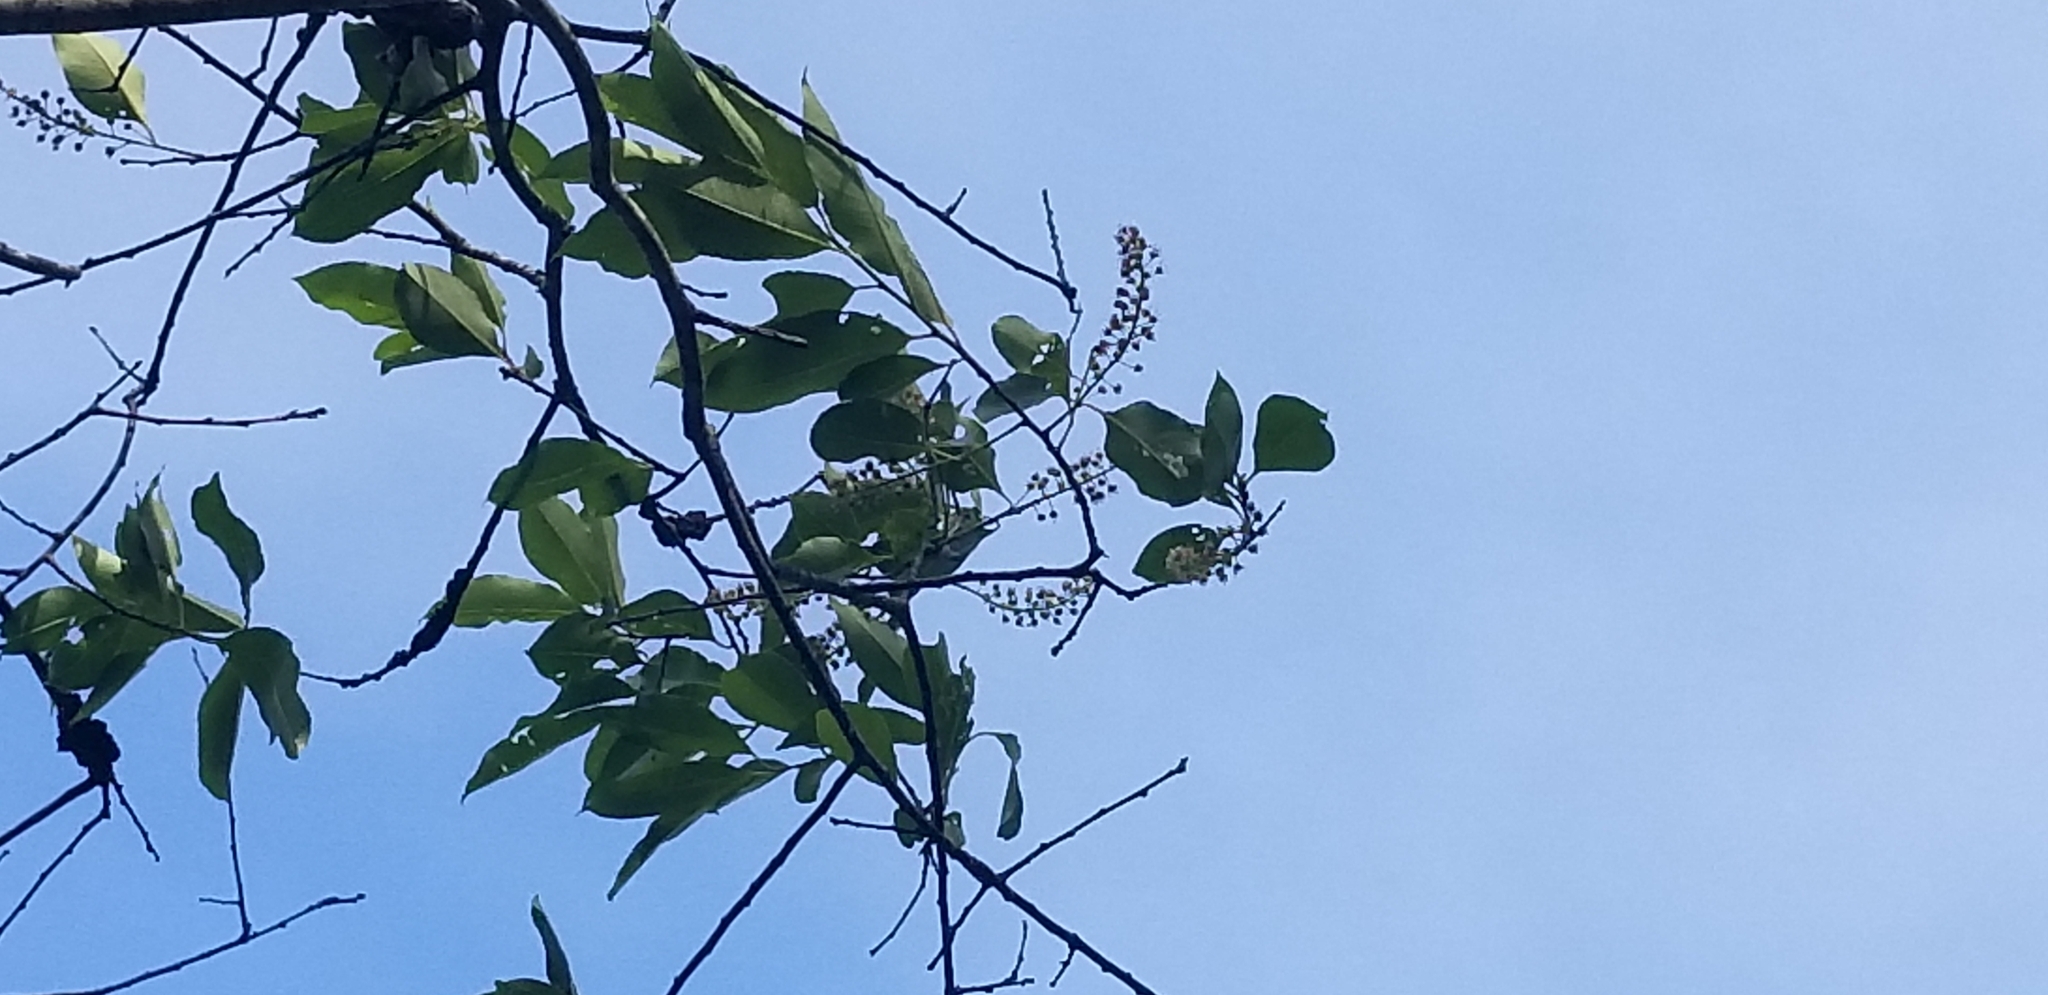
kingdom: Plantae
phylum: Tracheophyta
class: Magnoliopsida
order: Rosales
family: Rosaceae
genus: Prunus
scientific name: Prunus serotina
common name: Black cherry
